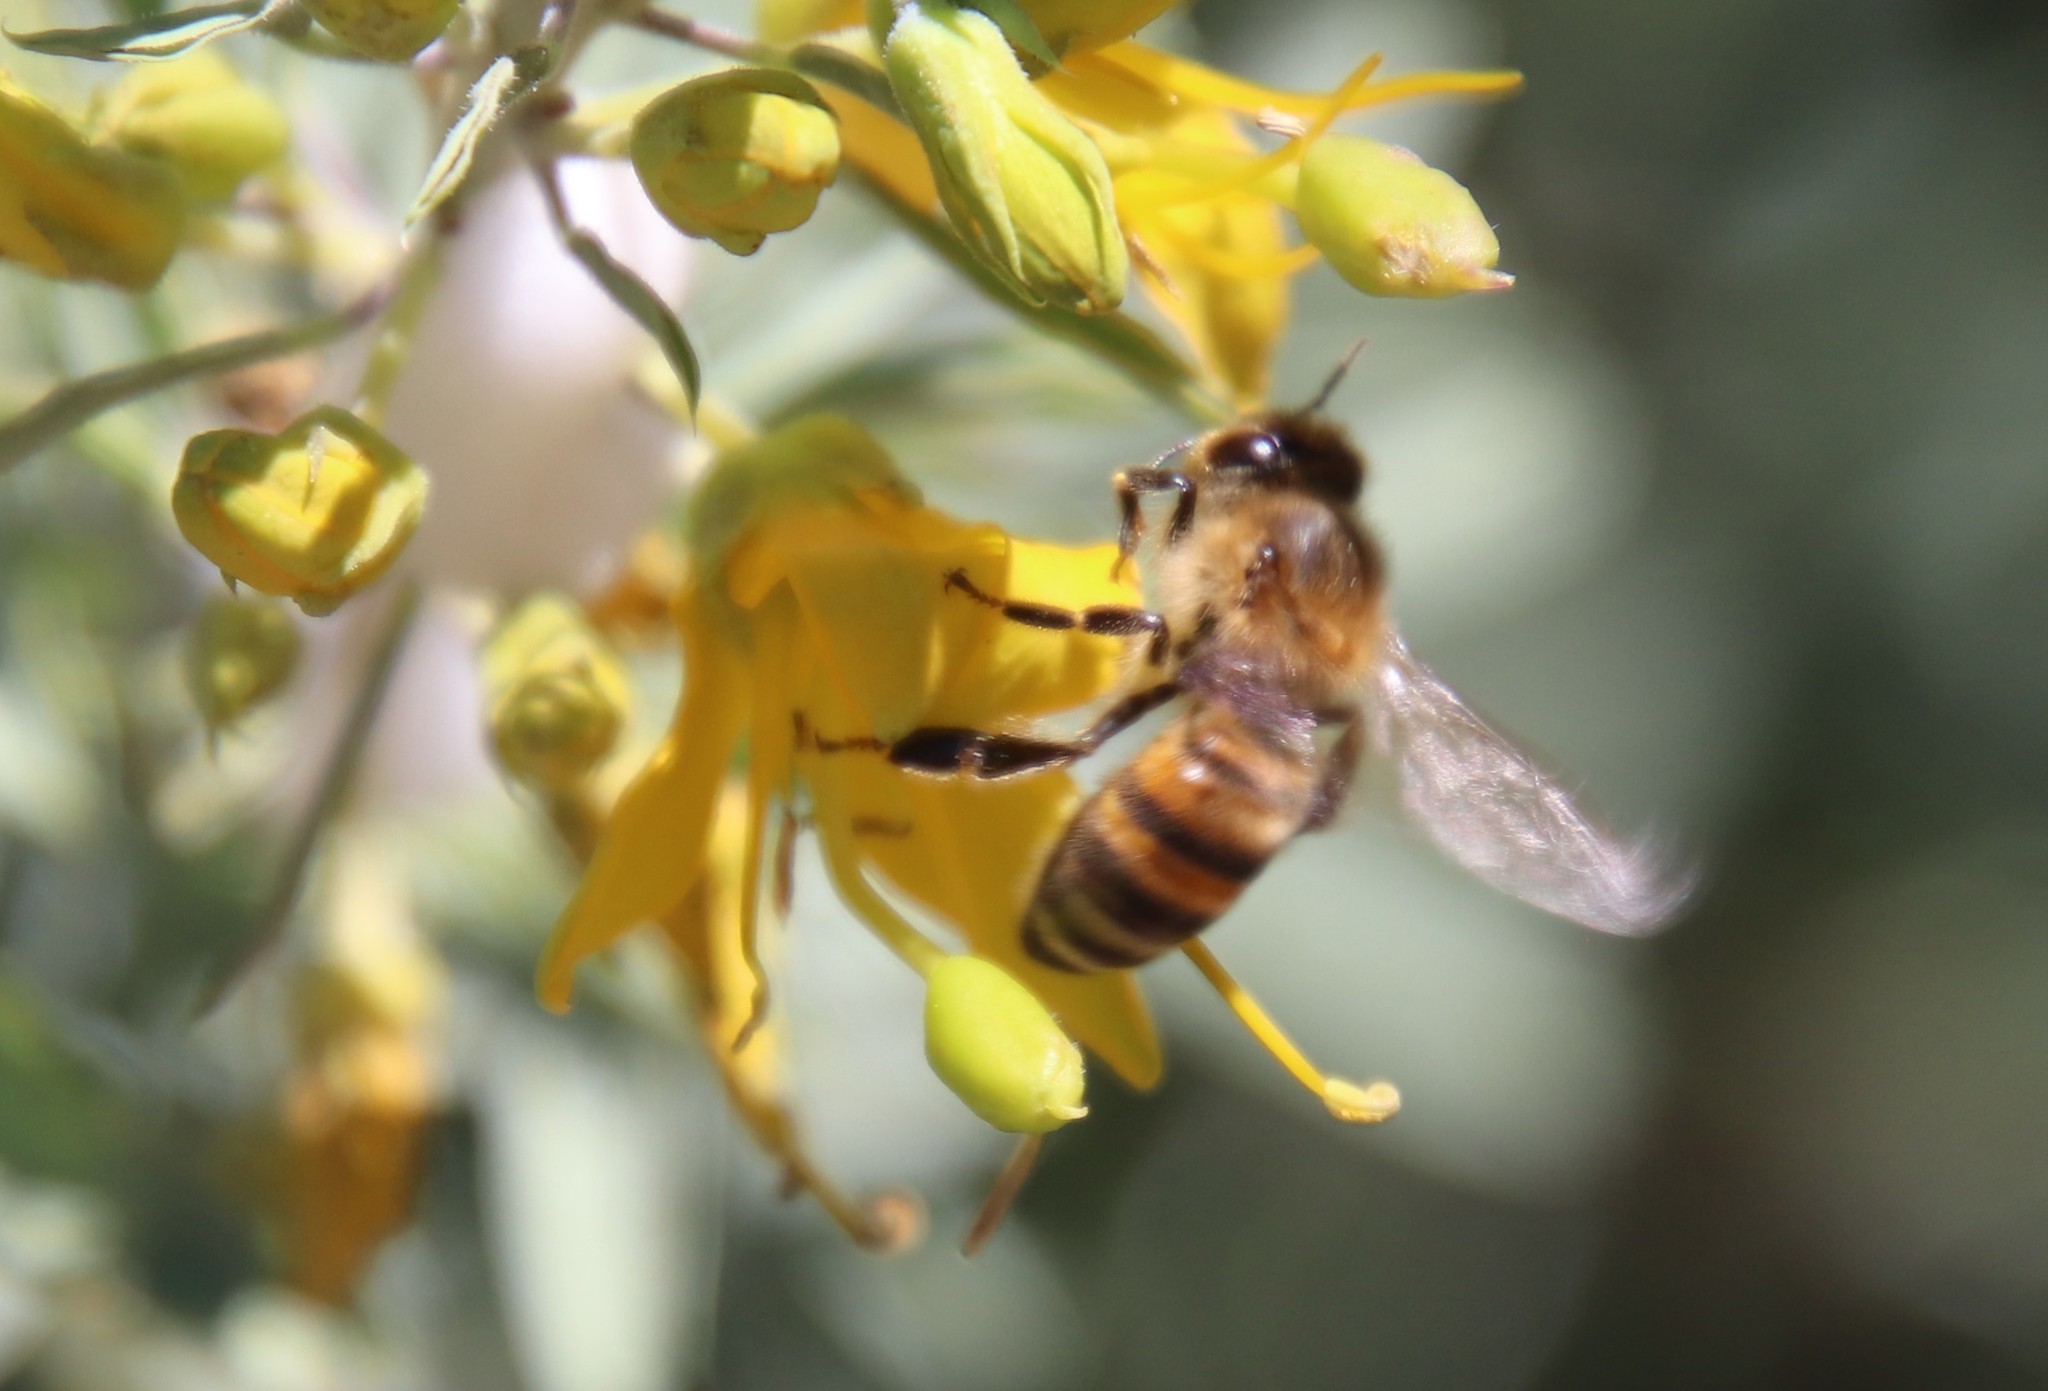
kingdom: Animalia
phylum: Arthropoda
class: Insecta
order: Hymenoptera
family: Apidae
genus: Apis
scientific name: Apis mellifera
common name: Honey bee
